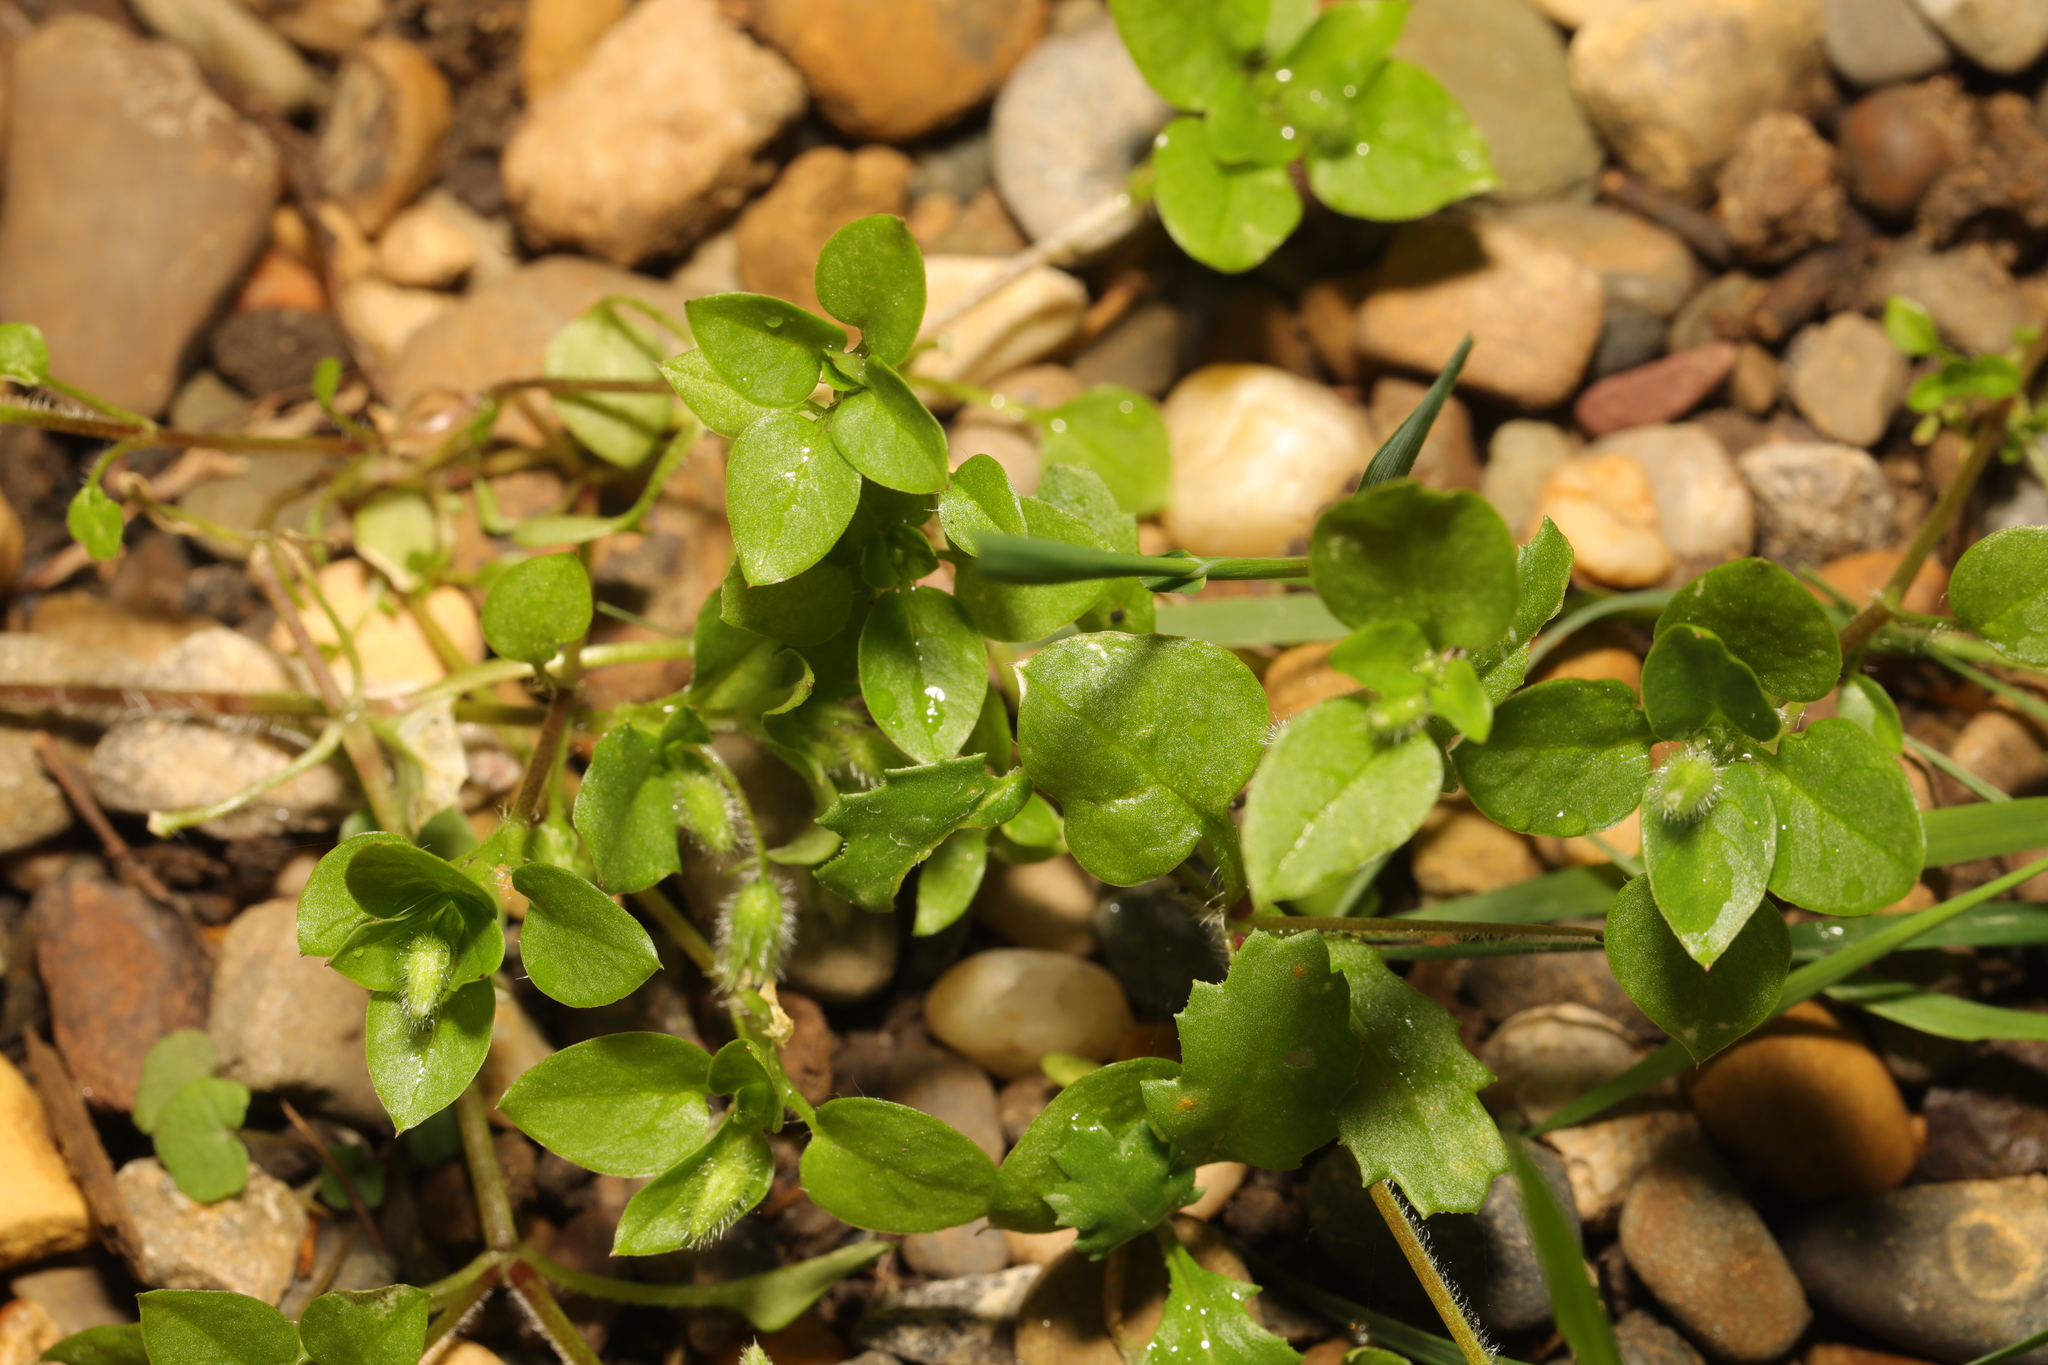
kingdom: Plantae
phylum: Tracheophyta
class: Magnoliopsida
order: Caryophyllales
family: Caryophyllaceae
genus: Stellaria
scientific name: Stellaria media
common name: Common chickweed
